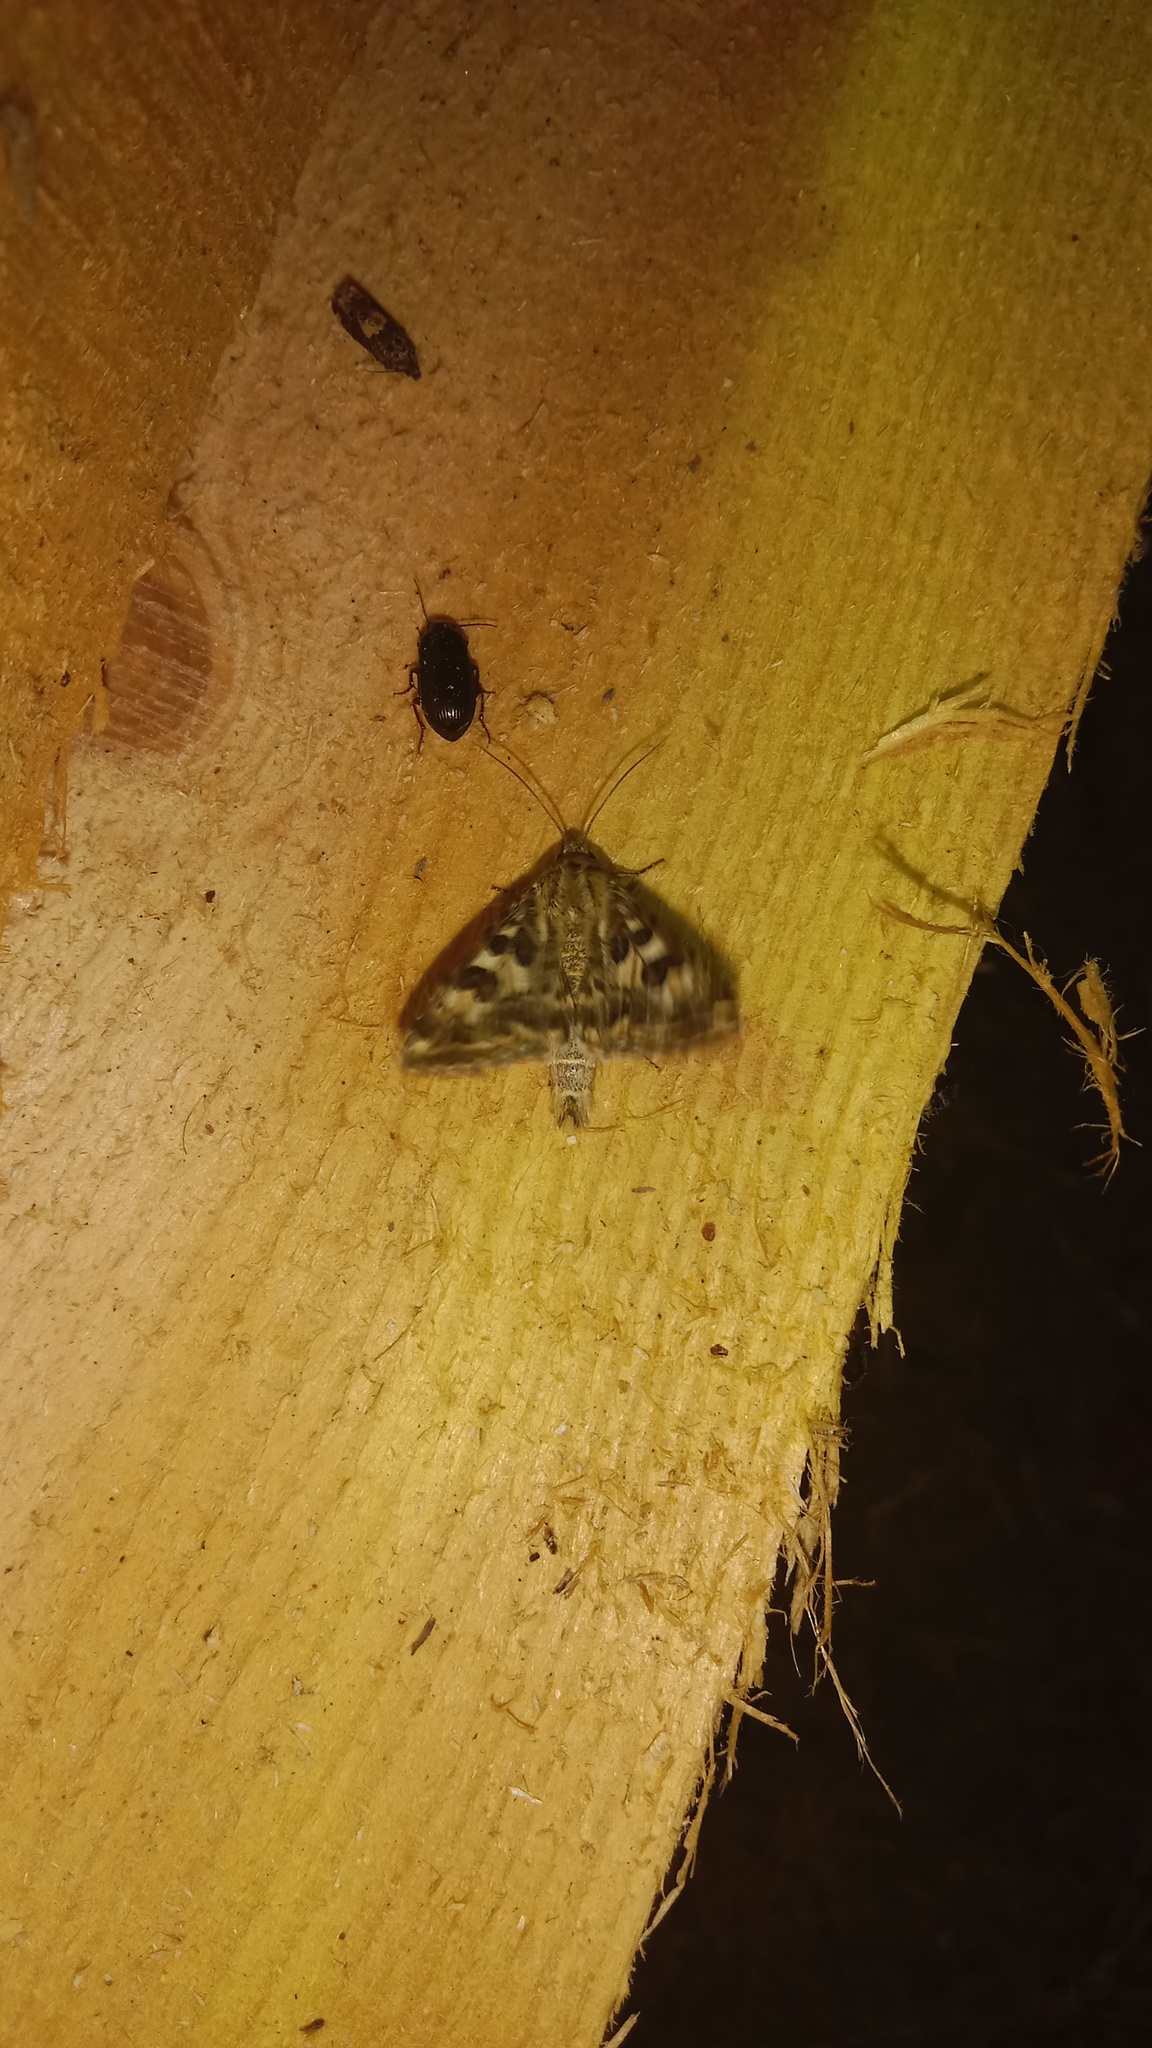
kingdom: Animalia
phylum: Arthropoda
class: Insecta
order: Lepidoptera
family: Noctuidae
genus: Protoschinia
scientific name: Protoschinia scutosa
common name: Spotted clover
